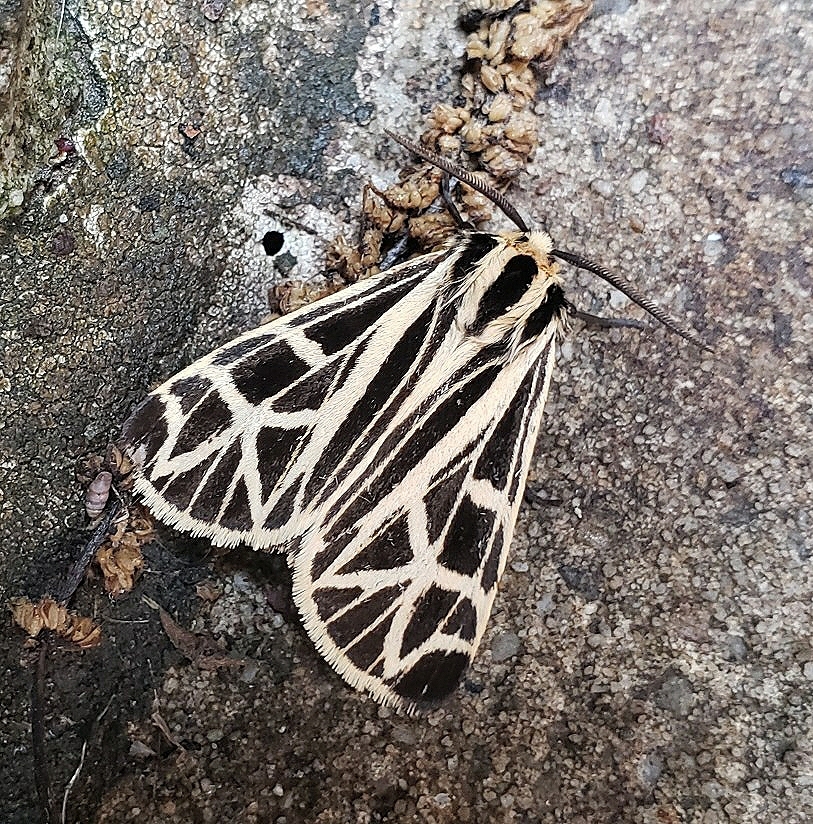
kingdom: Animalia
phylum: Arthropoda
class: Insecta
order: Lepidoptera
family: Erebidae
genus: Apantesis
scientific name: Apantesis
